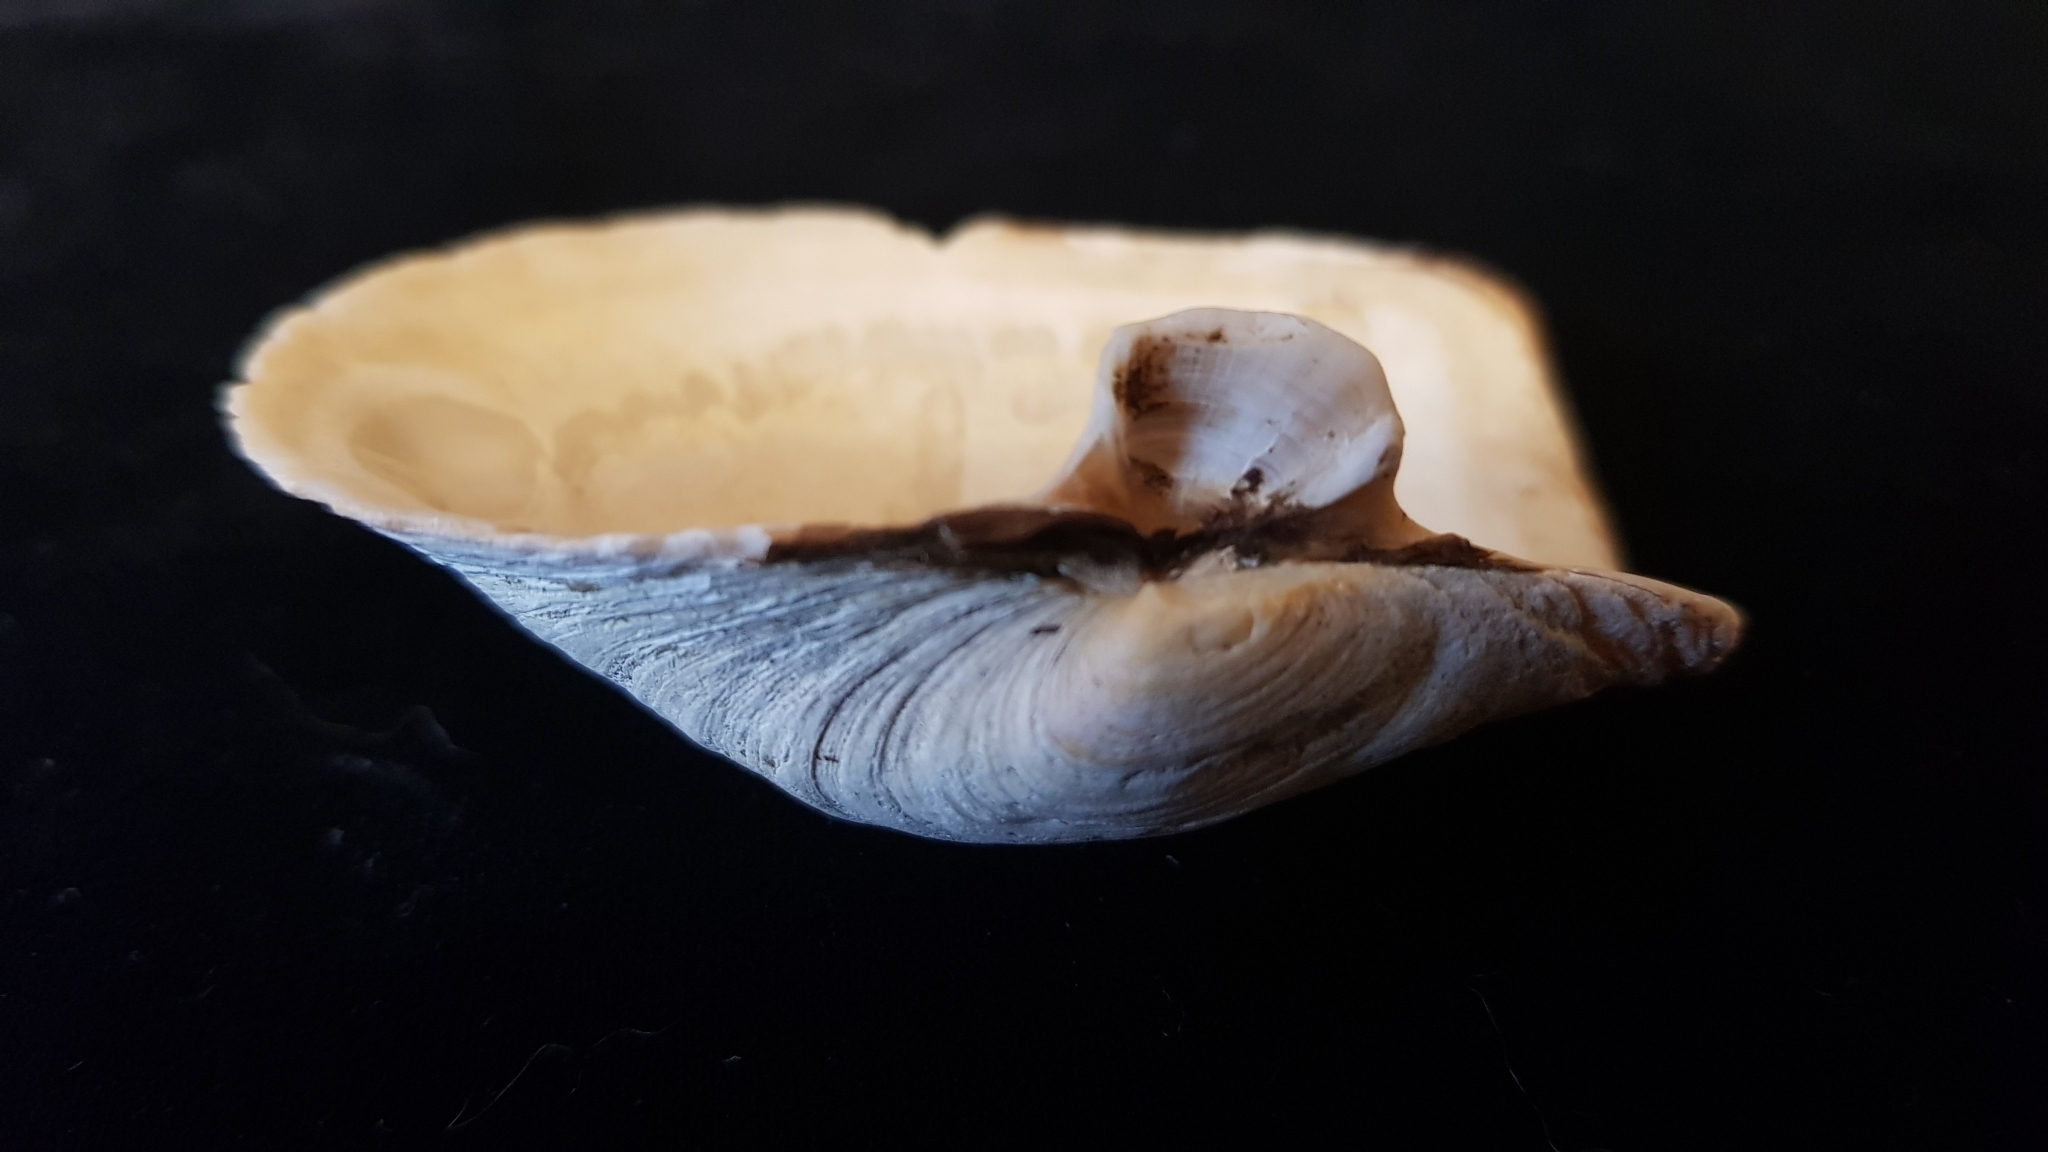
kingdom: Animalia
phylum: Mollusca
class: Bivalvia
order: Myida
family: Myidae
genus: Mya
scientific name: Mya truncata
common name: Blunt gaper
